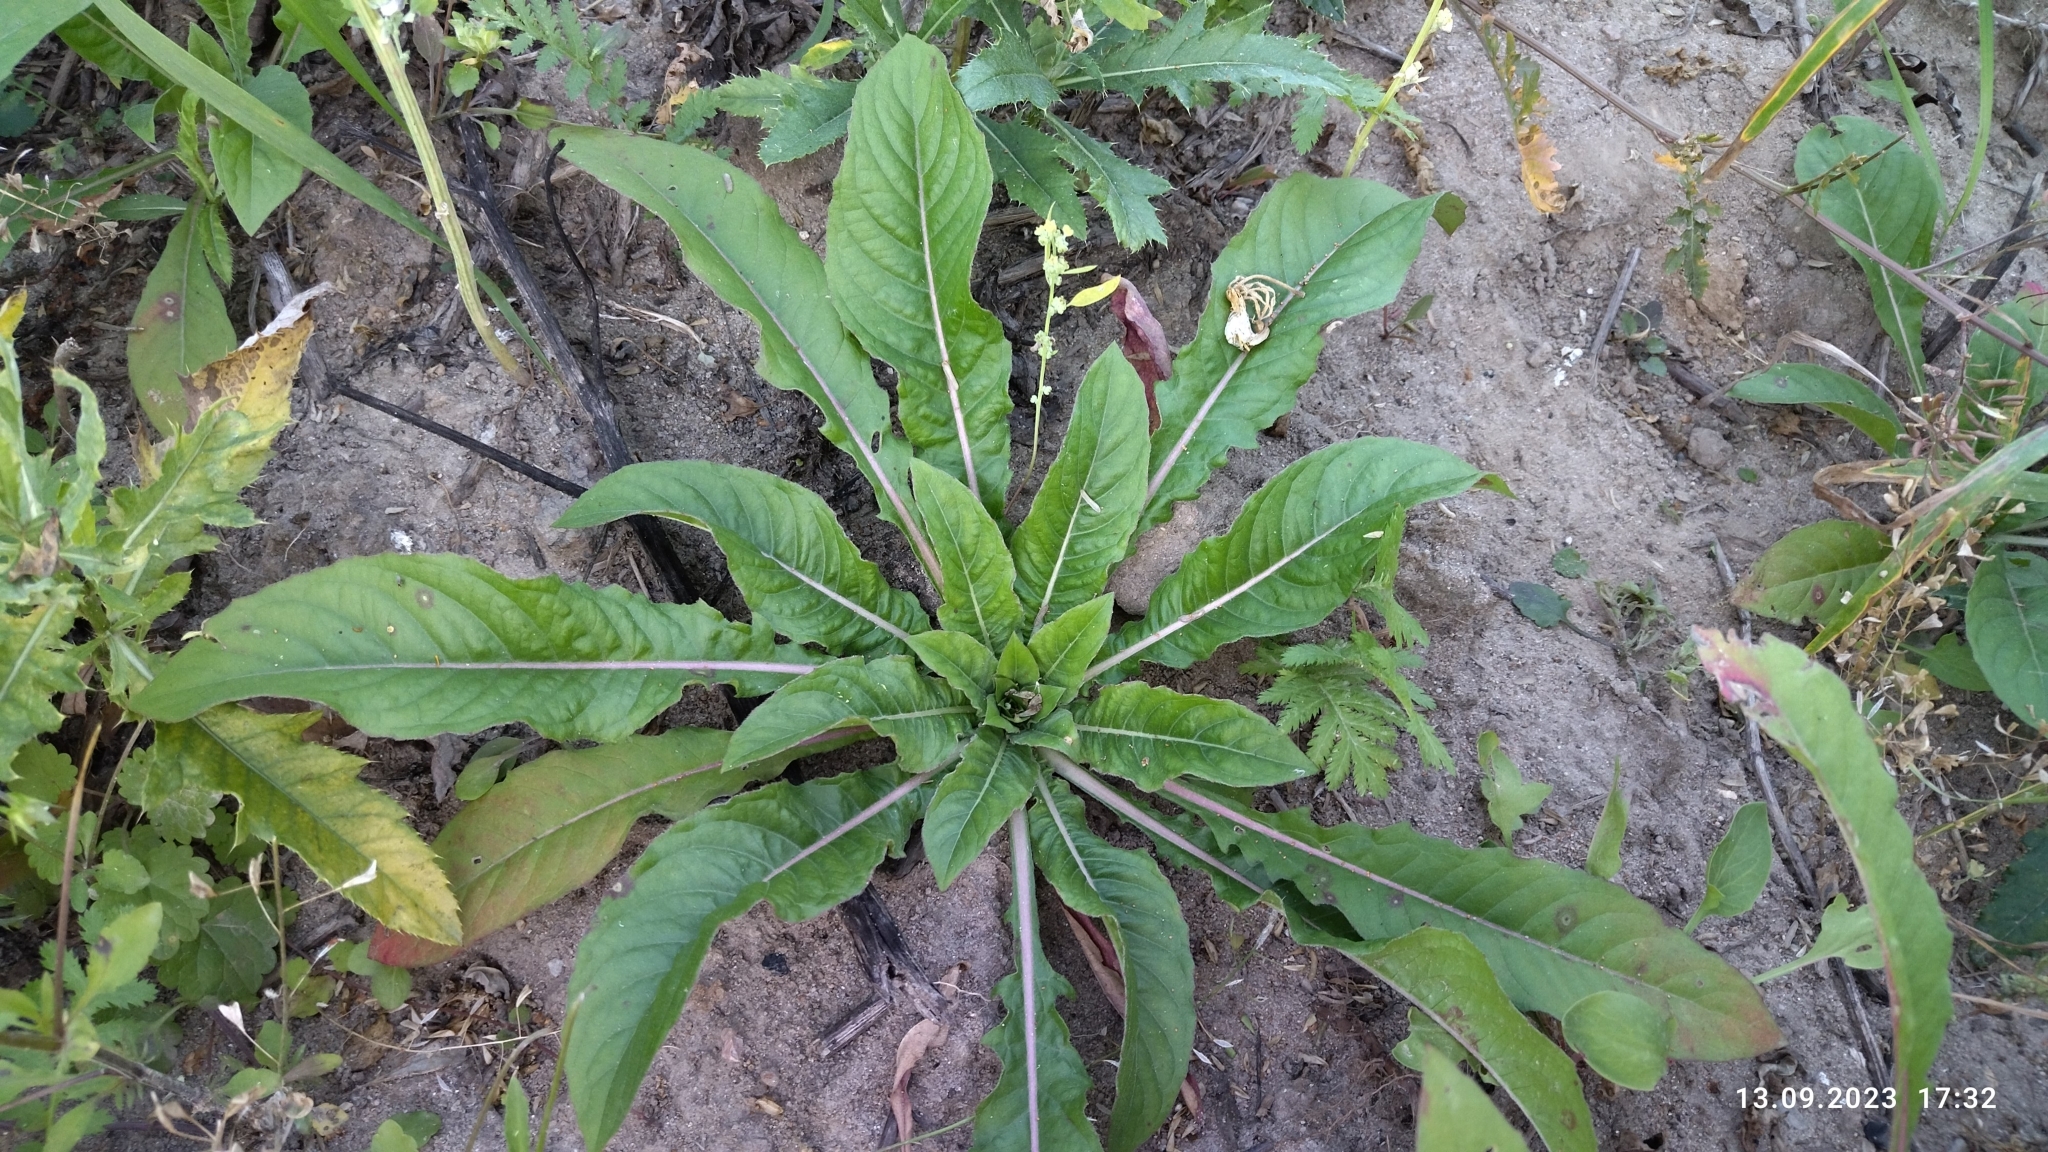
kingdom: Plantae
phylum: Tracheophyta
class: Magnoliopsida
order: Myrtales
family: Onagraceae
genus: Oenothera
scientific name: Oenothera
